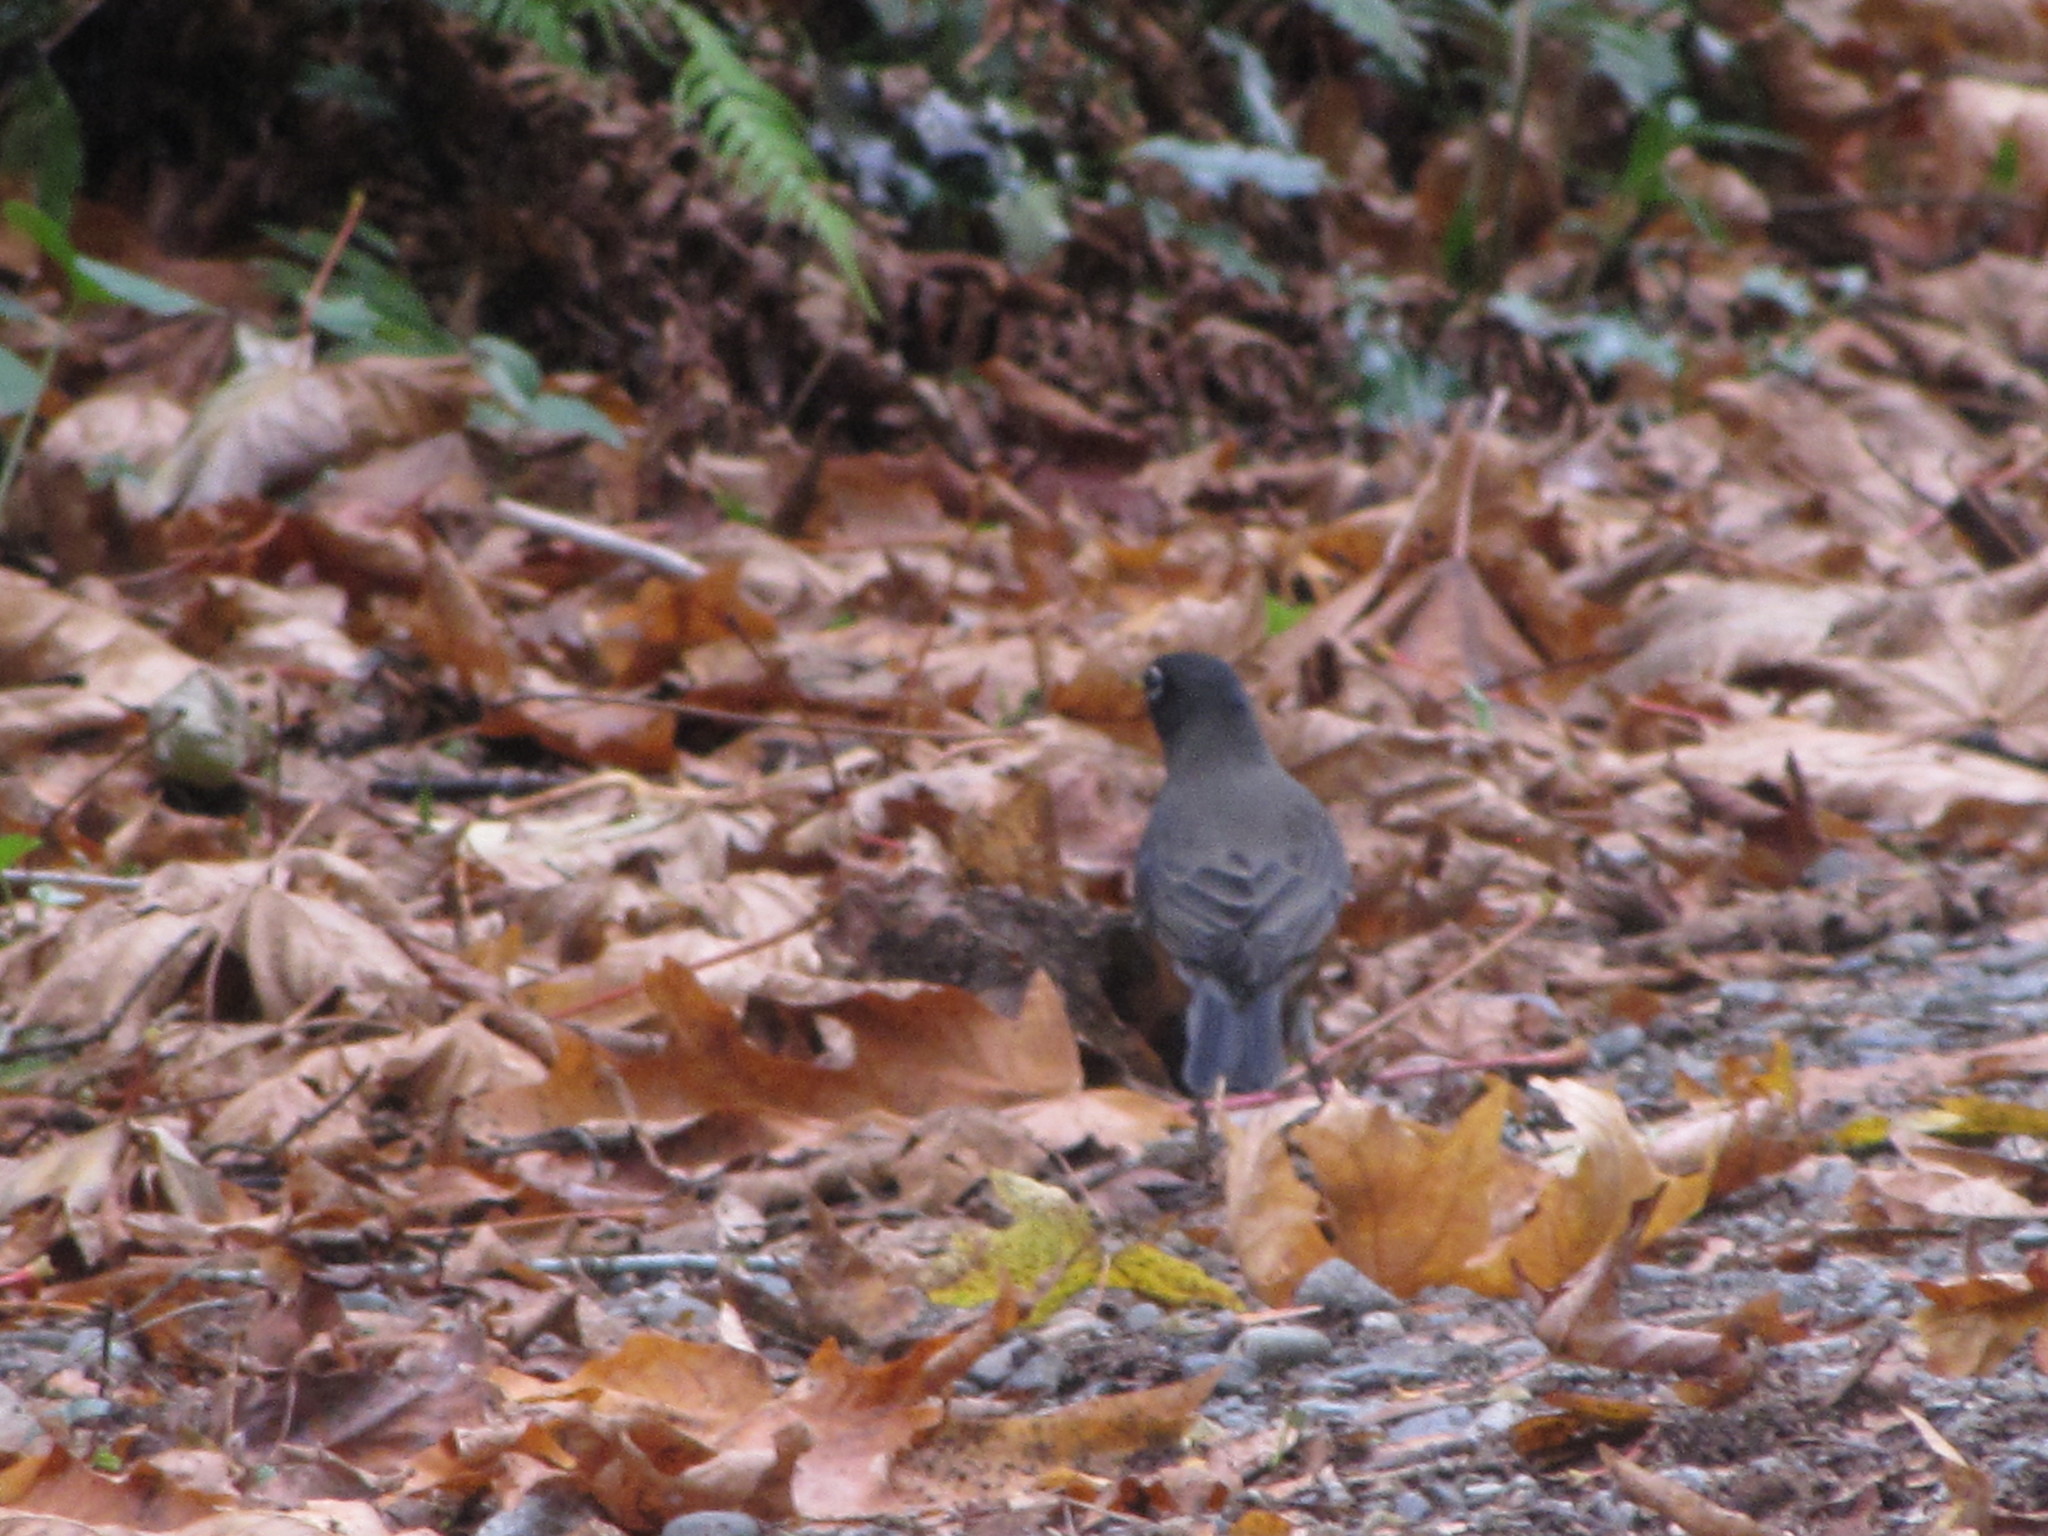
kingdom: Animalia
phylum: Chordata
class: Aves
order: Passeriformes
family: Turdidae
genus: Turdus
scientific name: Turdus migratorius
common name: American robin
